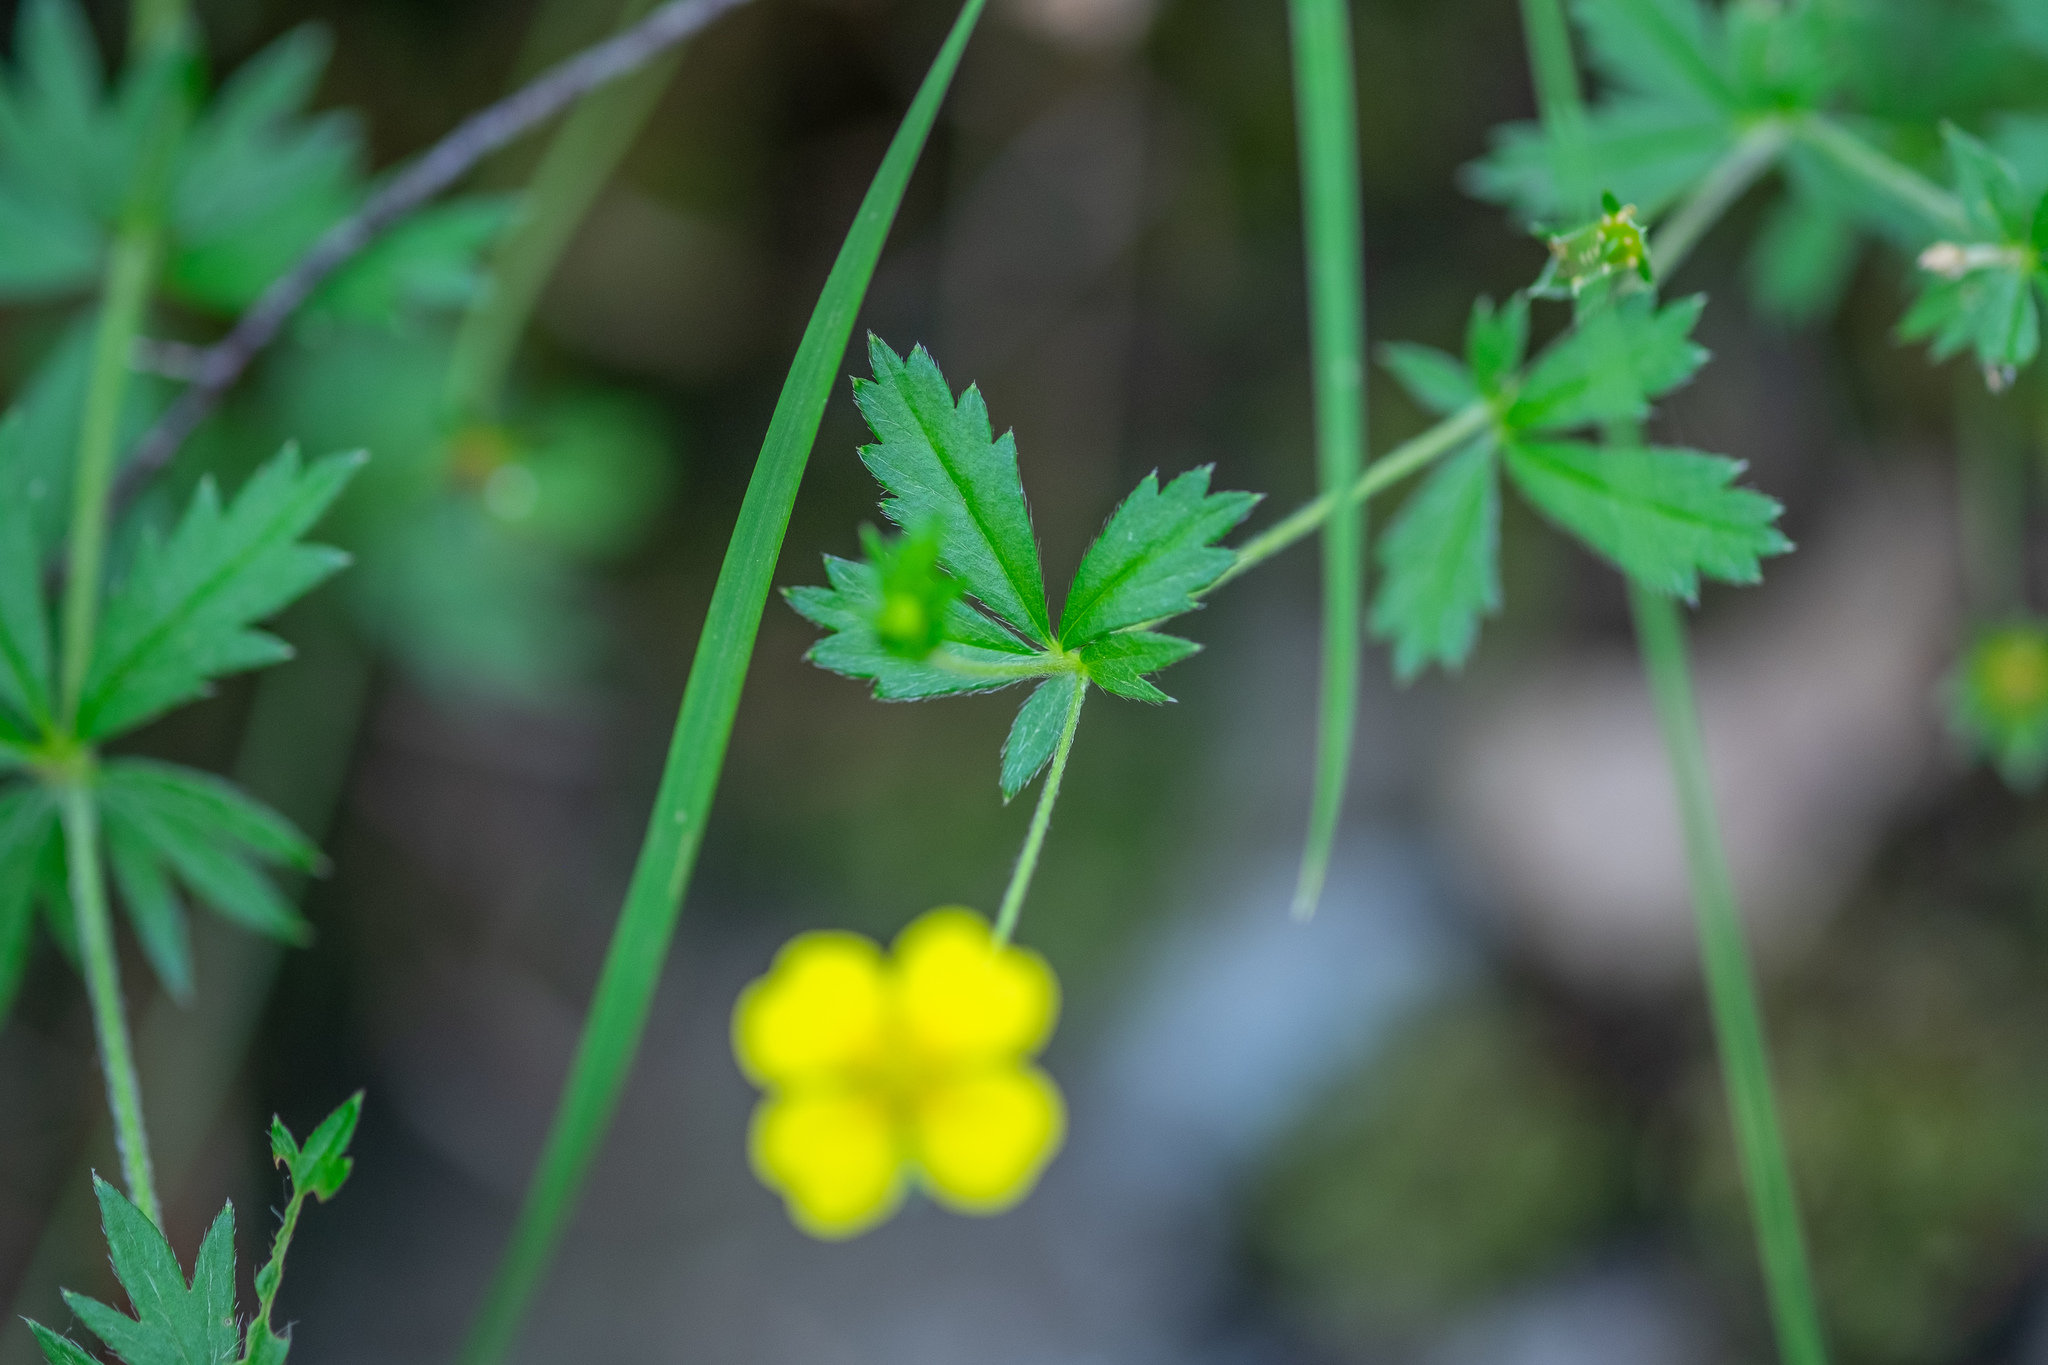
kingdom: Plantae
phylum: Tracheophyta
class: Magnoliopsida
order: Rosales
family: Rosaceae
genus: Potentilla
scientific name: Potentilla erecta
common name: Tormentil
